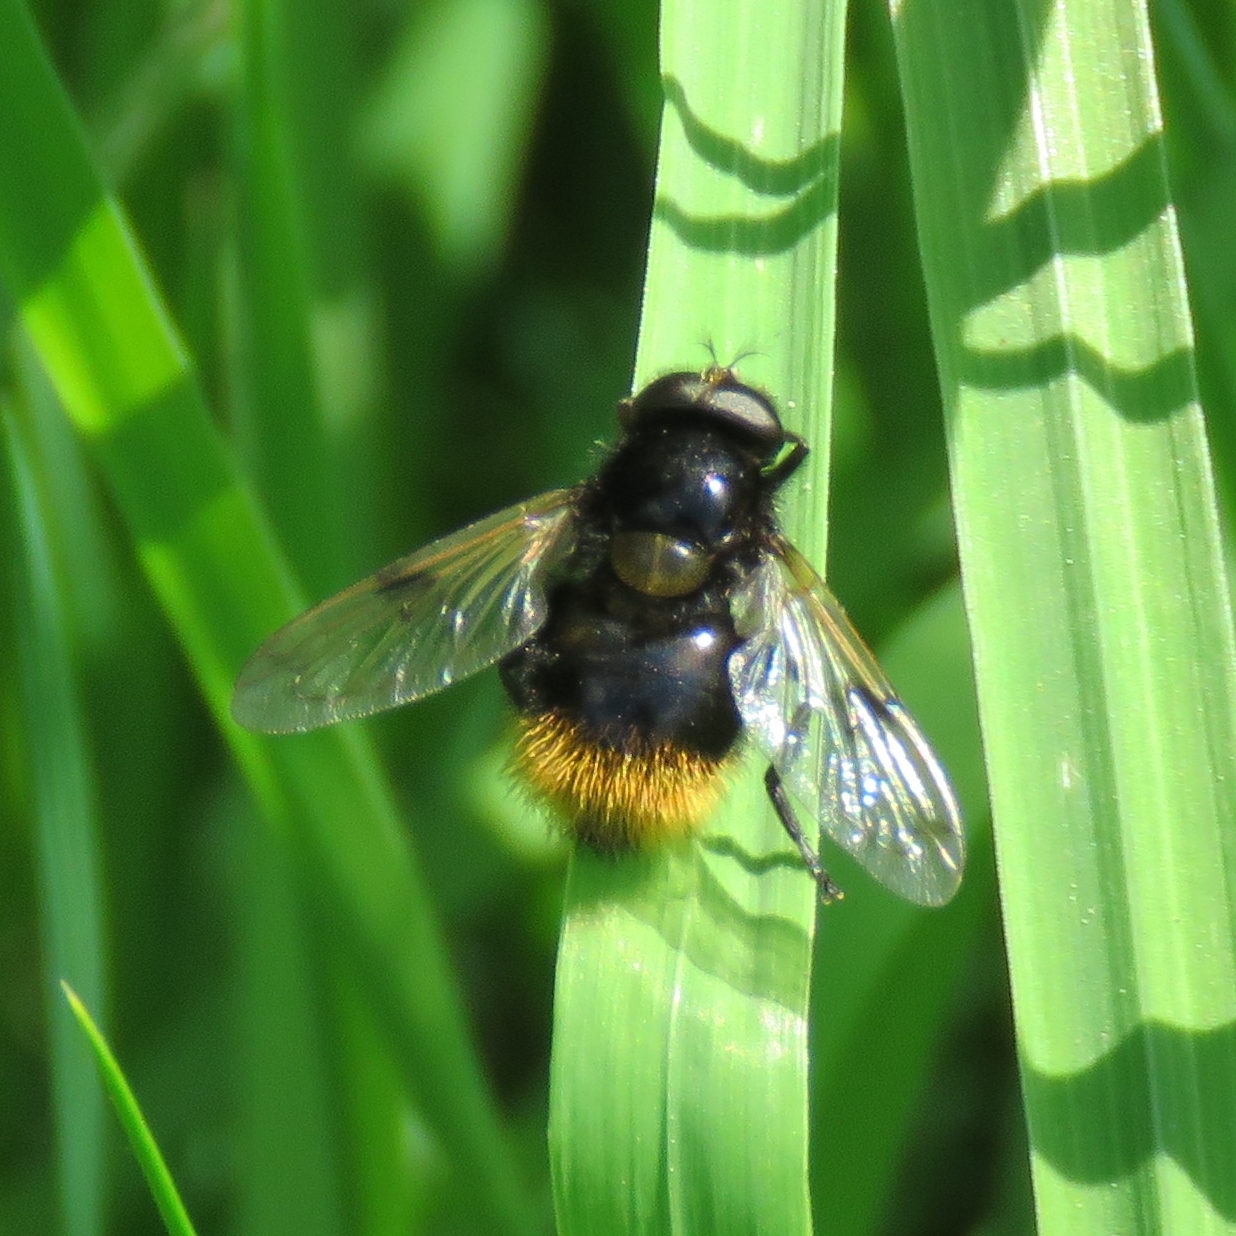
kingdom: Animalia
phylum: Arthropoda
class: Insecta
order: Diptera
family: Syrphidae
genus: Volucella
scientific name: Volucella bombylans
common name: Bumble bee hover fly
